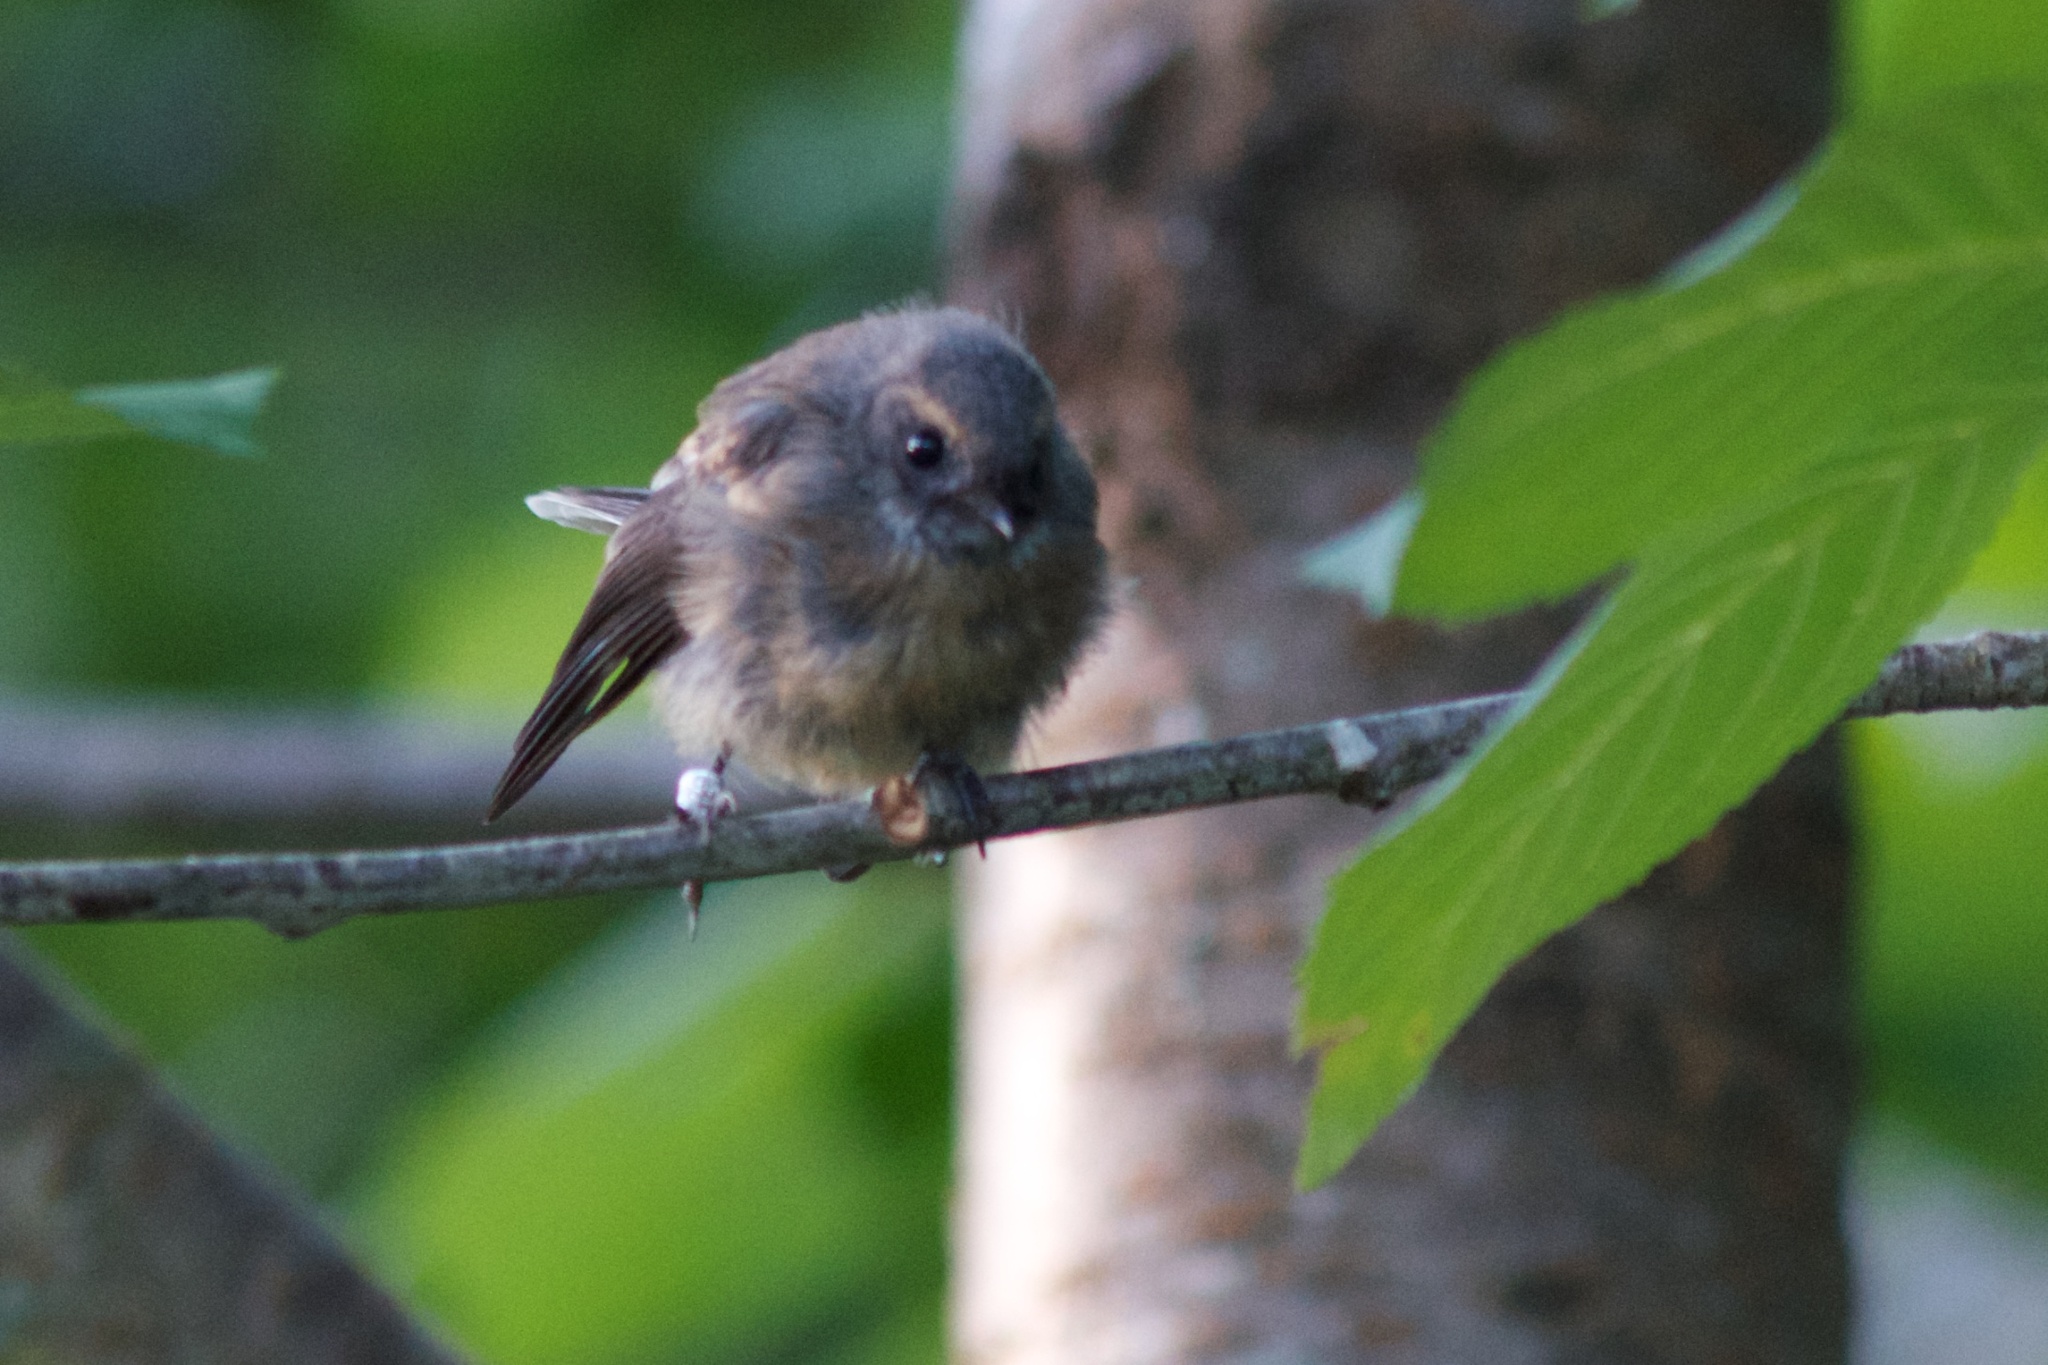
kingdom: Animalia
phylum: Chordata
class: Aves
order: Passeriformes
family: Rhipiduridae
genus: Rhipidura
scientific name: Rhipidura fuliginosa
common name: New zealand fantail
